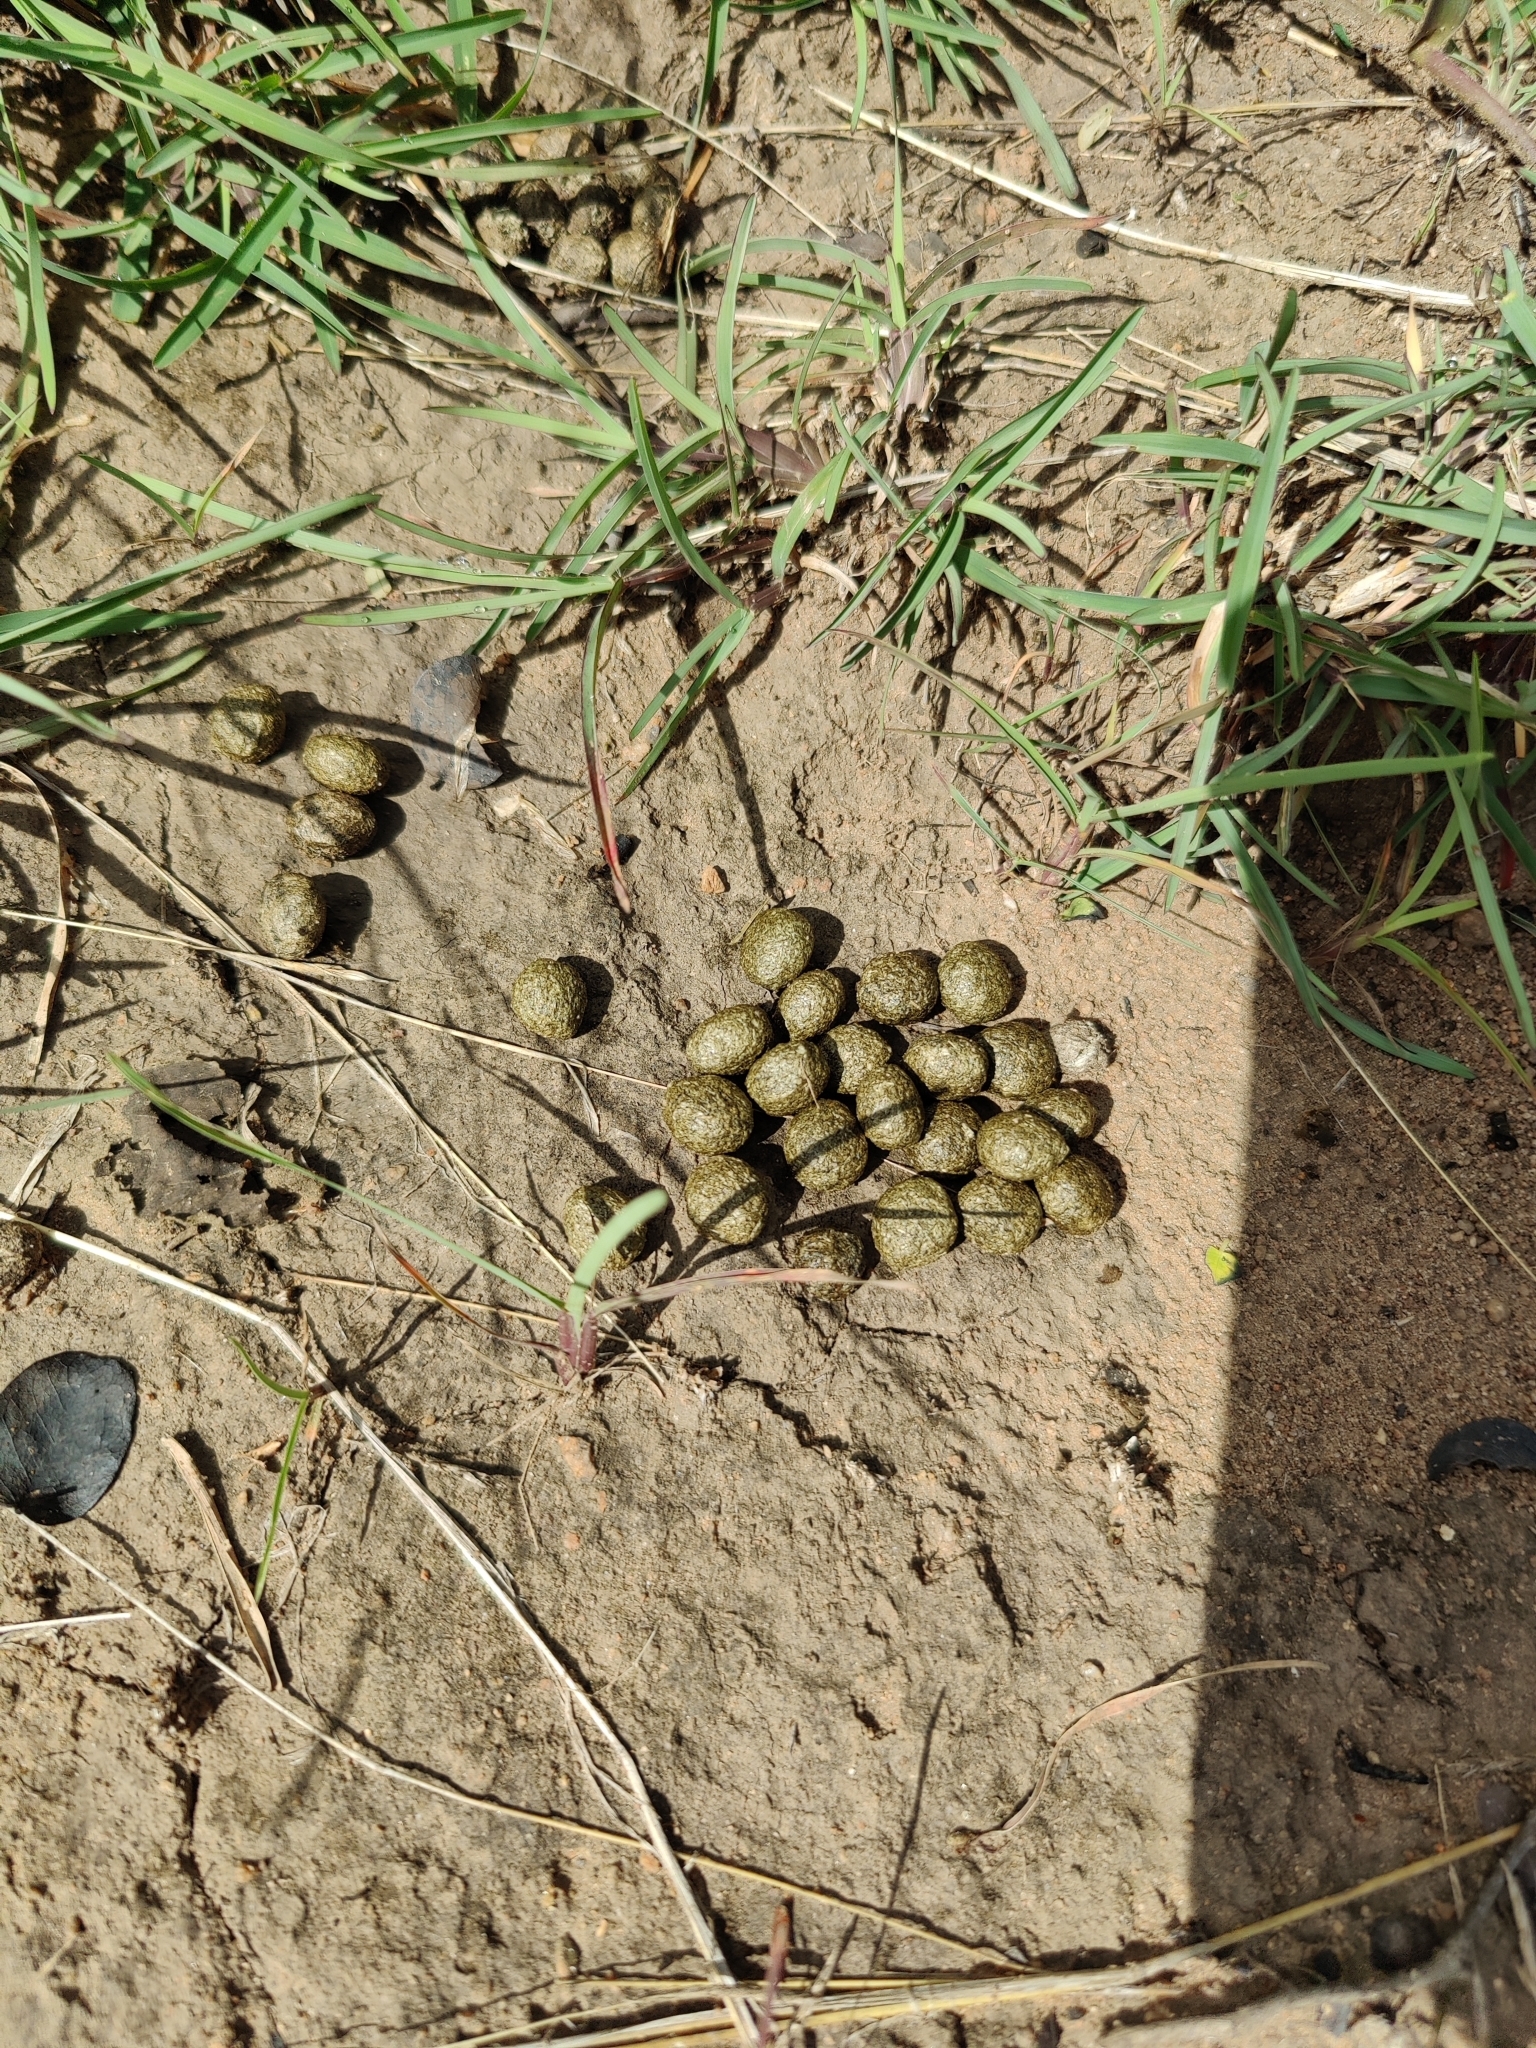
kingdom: Animalia
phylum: Chordata
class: Mammalia
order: Lagomorpha
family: Leporidae
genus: Lepus
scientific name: Lepus nigricollis
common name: Indian hare
